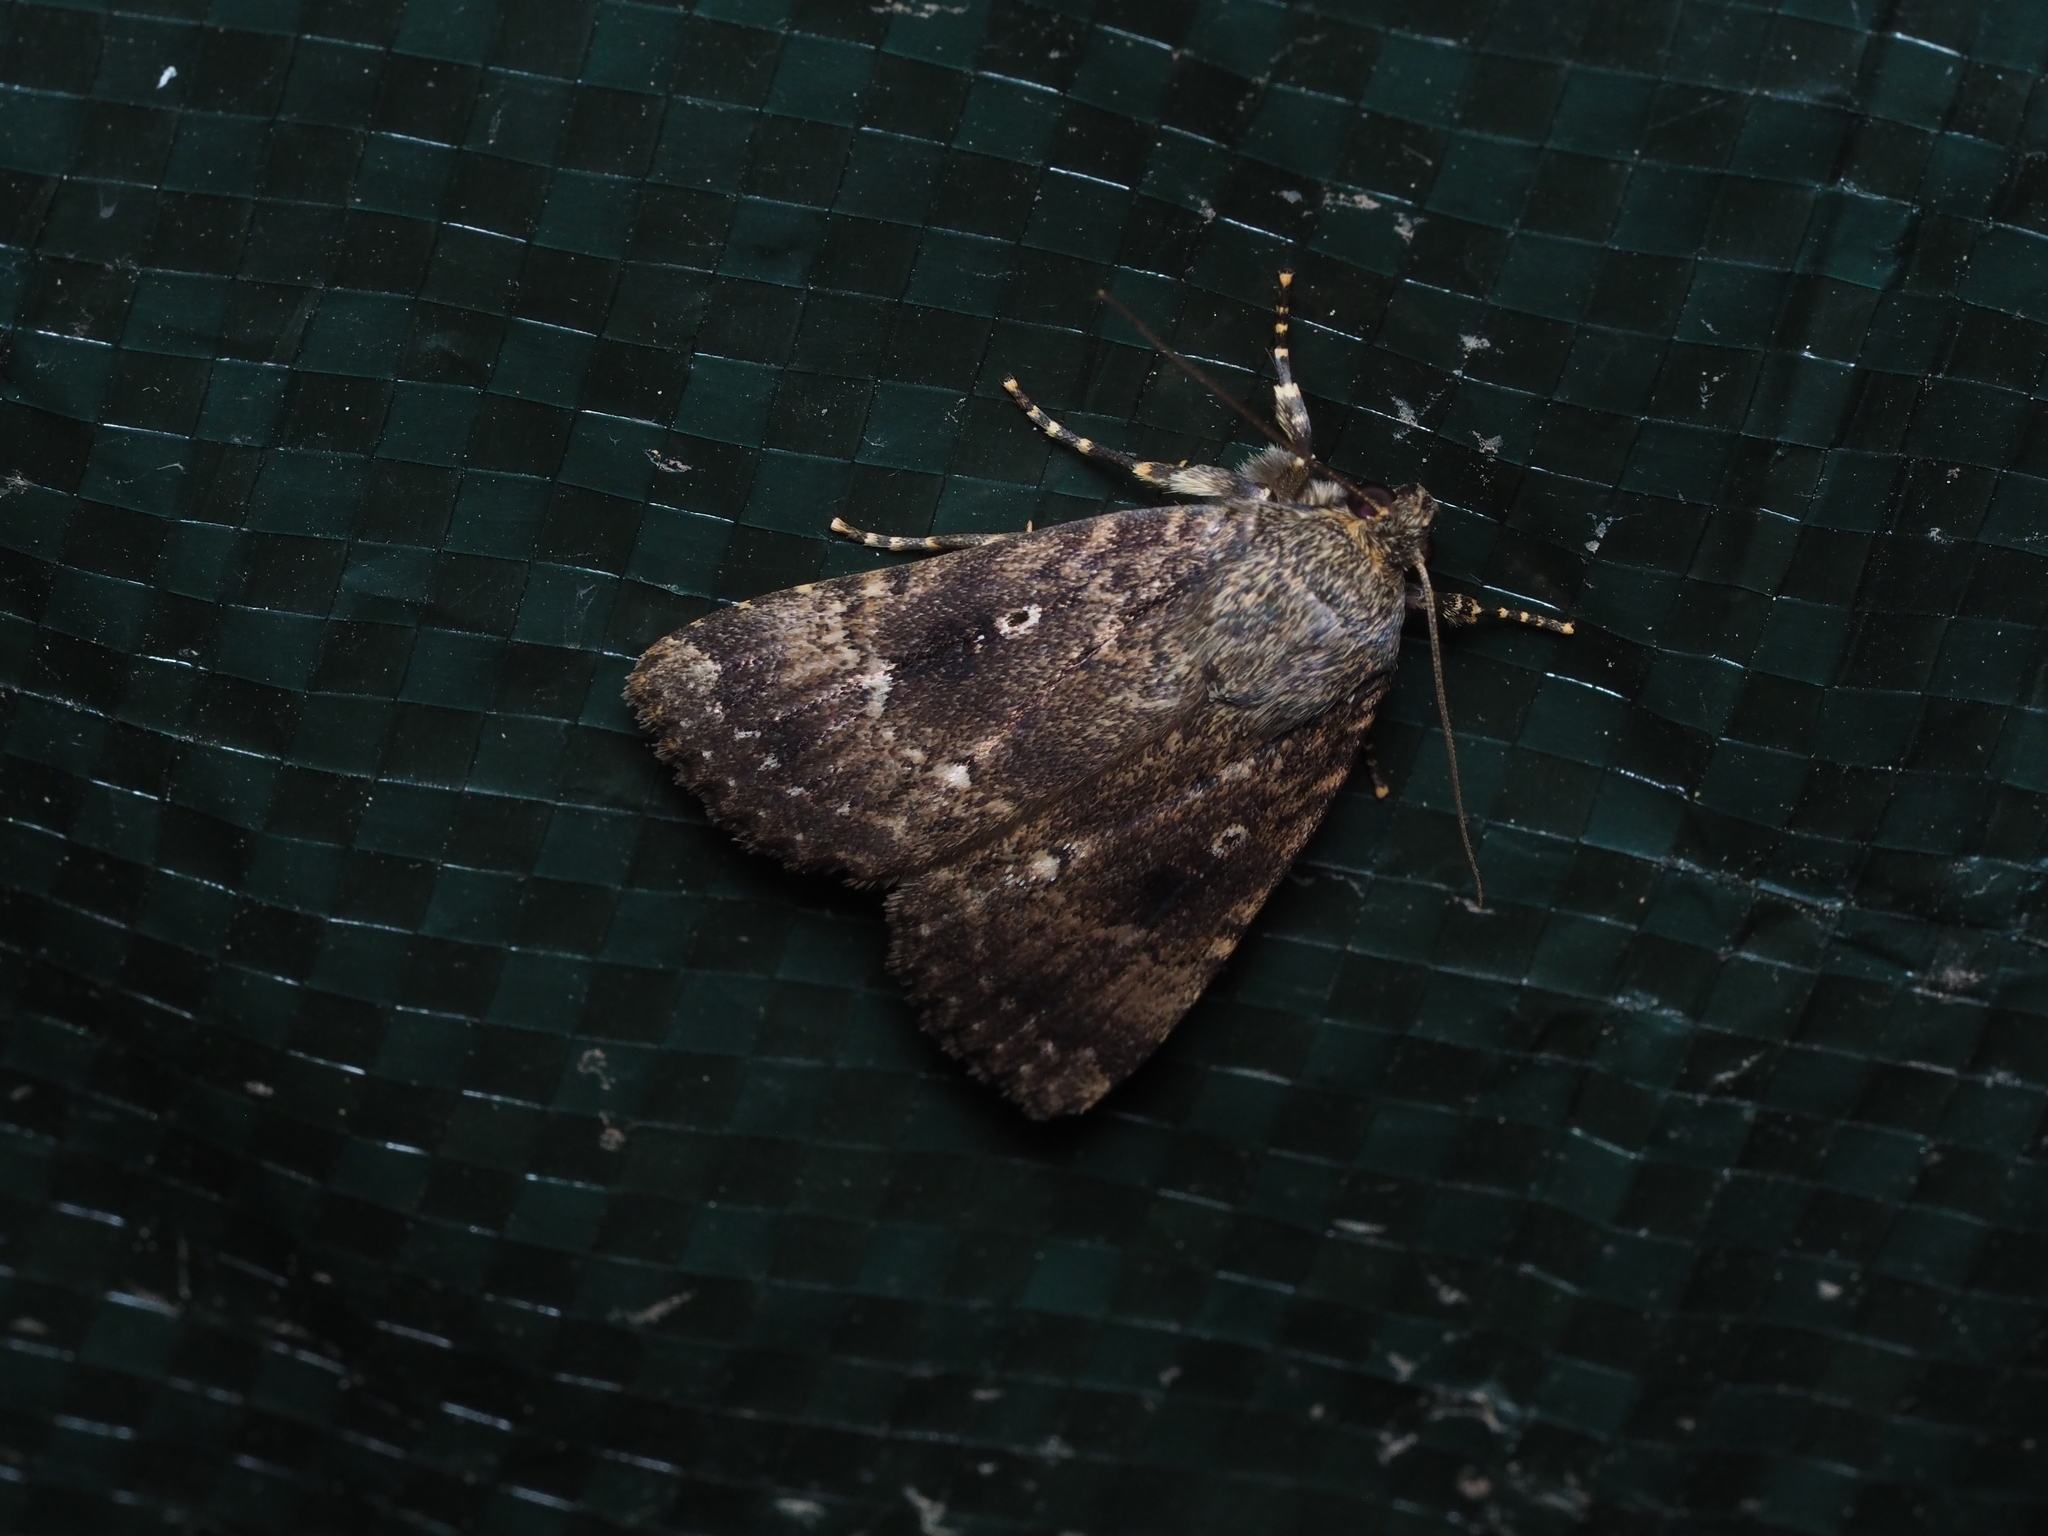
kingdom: Animalia
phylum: Arthropoda
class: Insecta
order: Lepidoptera
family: Noctuidae
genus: Amphipyra
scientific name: Amphipyra pyramidea
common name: Copper underwing
